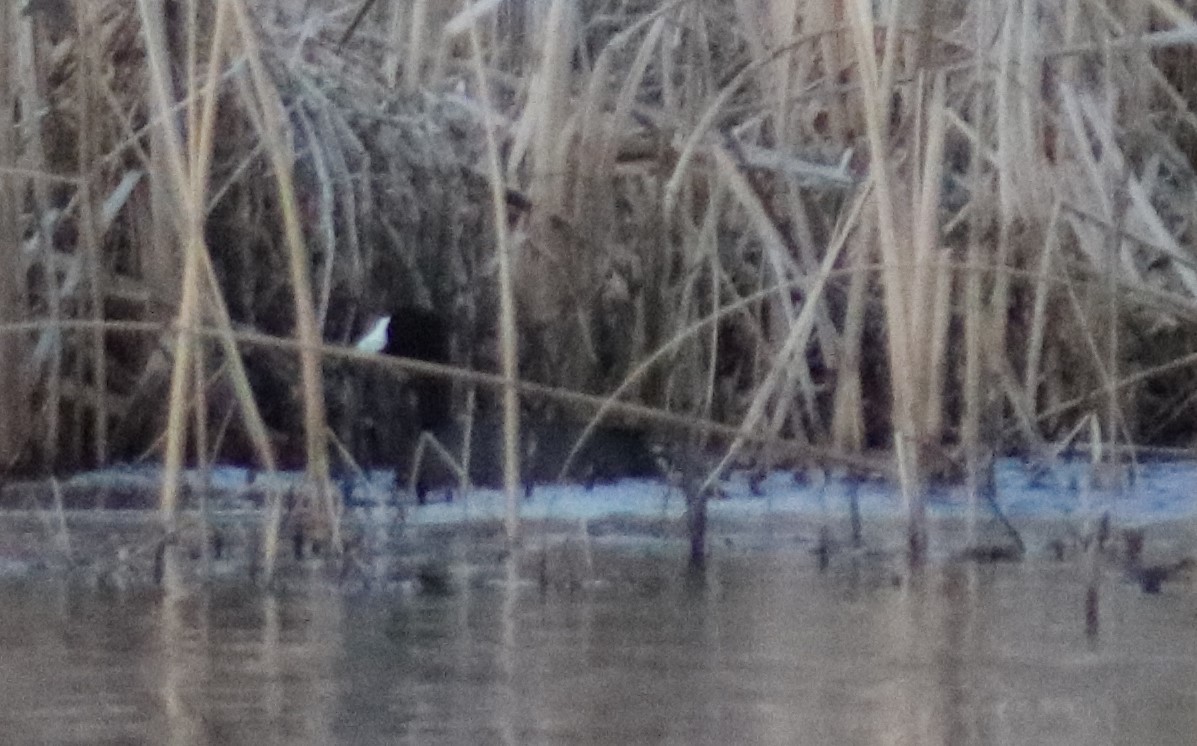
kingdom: Animalia
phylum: Chordata
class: Aves
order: Gruiformes
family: Rallidae
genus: Fulica
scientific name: Fulica americana
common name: American coot
